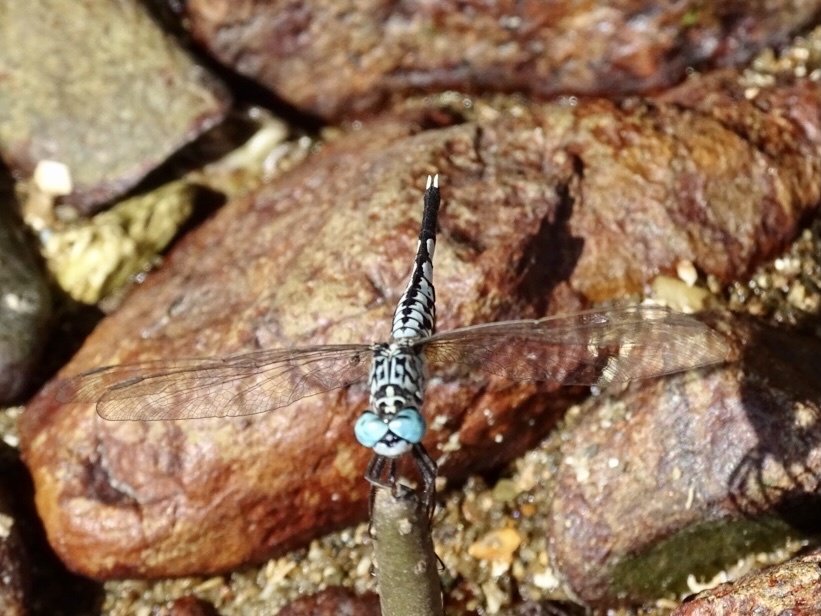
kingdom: Animalia
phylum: Arthropoda
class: Insecta
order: Odonata
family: Libellulidae
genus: Acisoma
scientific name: Acisoma panorpoides
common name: Asian pintail
